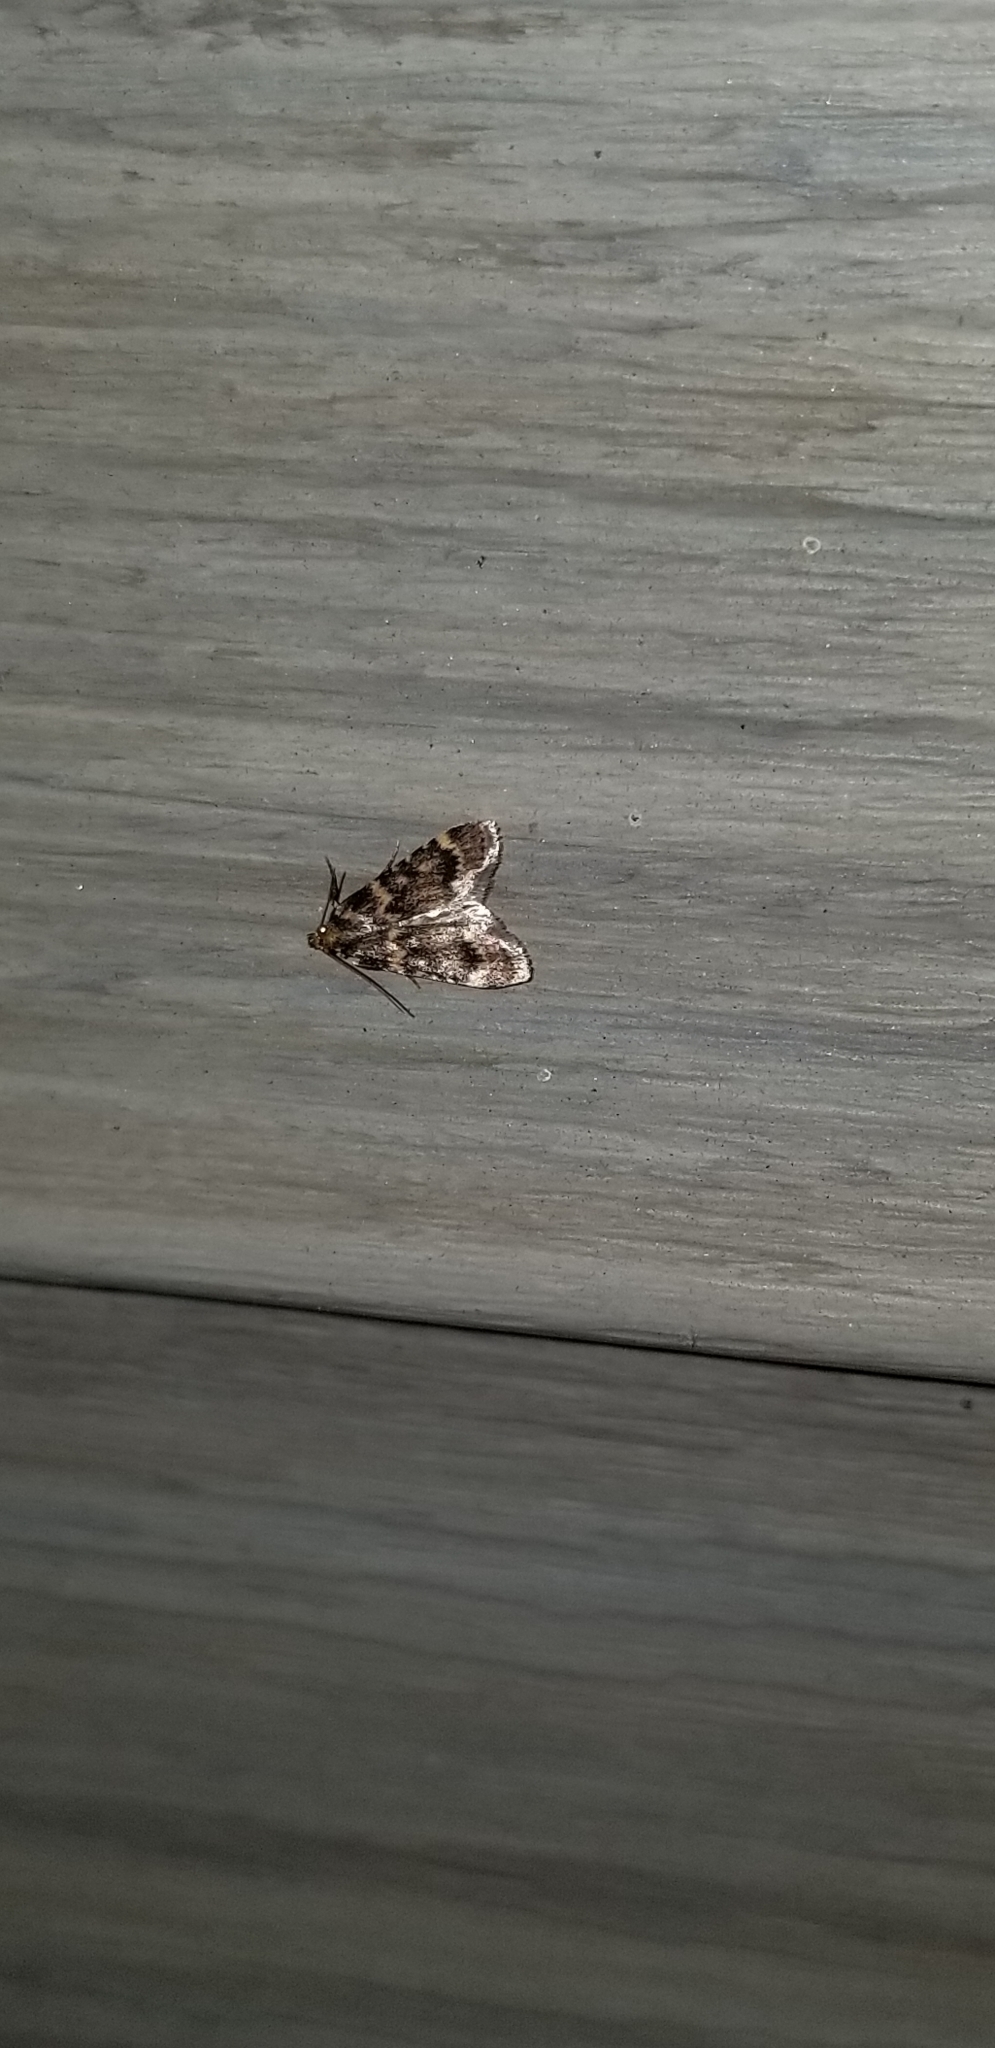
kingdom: Animalia
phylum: Arthropoda
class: Insecta
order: Lepidoptera
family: Pyralidae
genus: Aglossa
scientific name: Aglossa caprealis
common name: Small tabby
